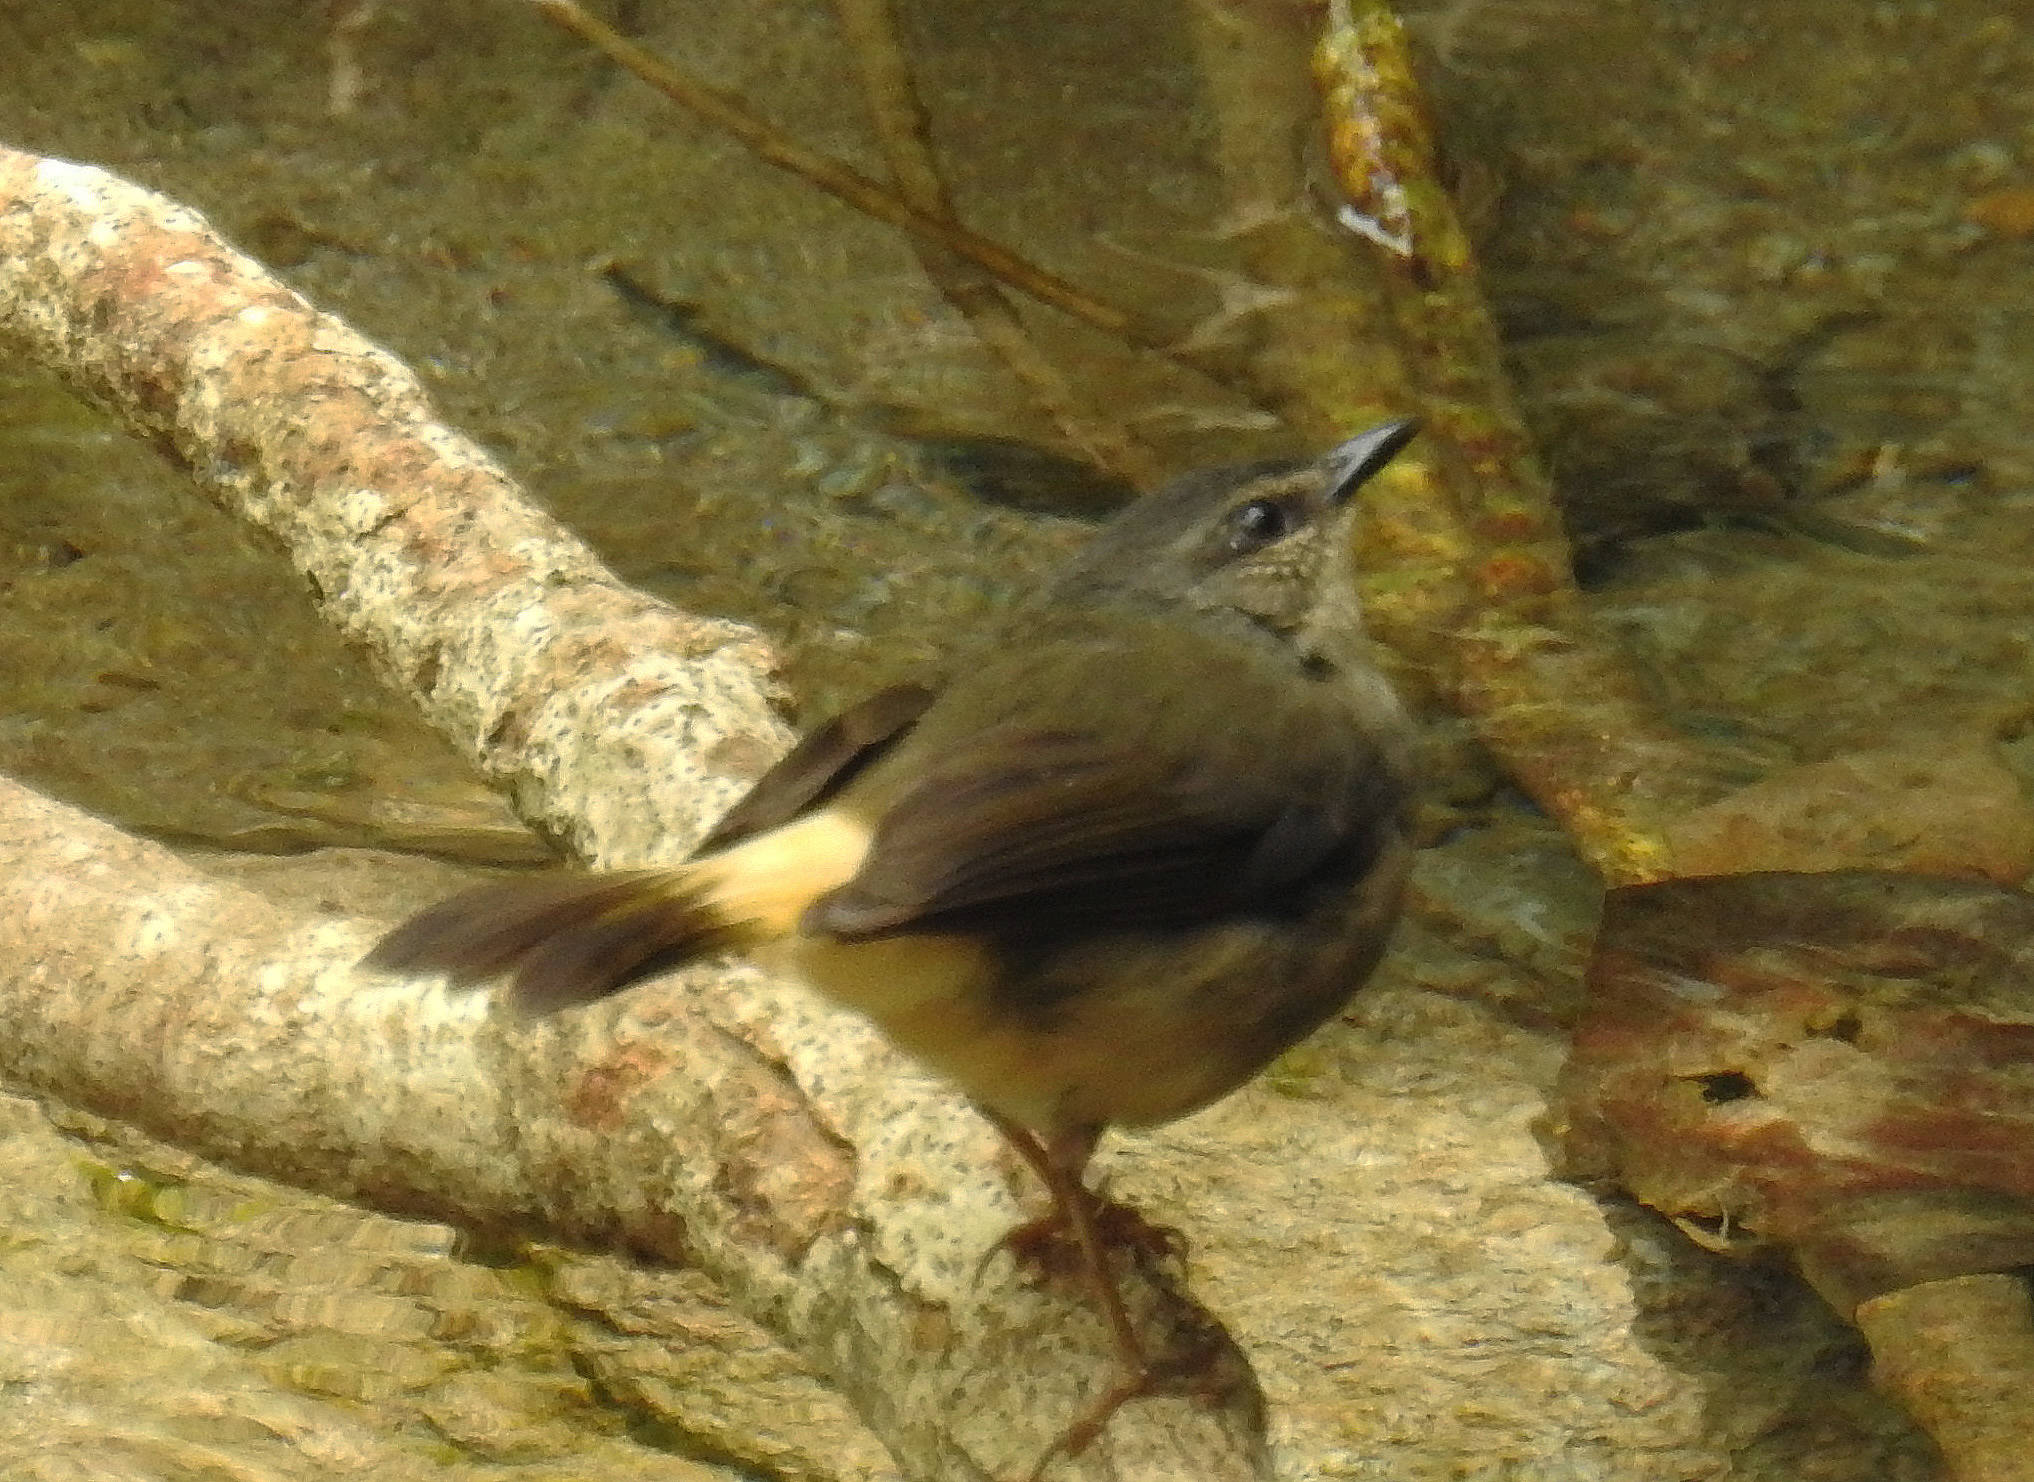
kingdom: Animalia
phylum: Chordata
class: Aves
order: Passeriformes
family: Parulidae
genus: Myiothlypis
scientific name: Myiothlypis fulvicauda
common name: Buff-rumped warbler
